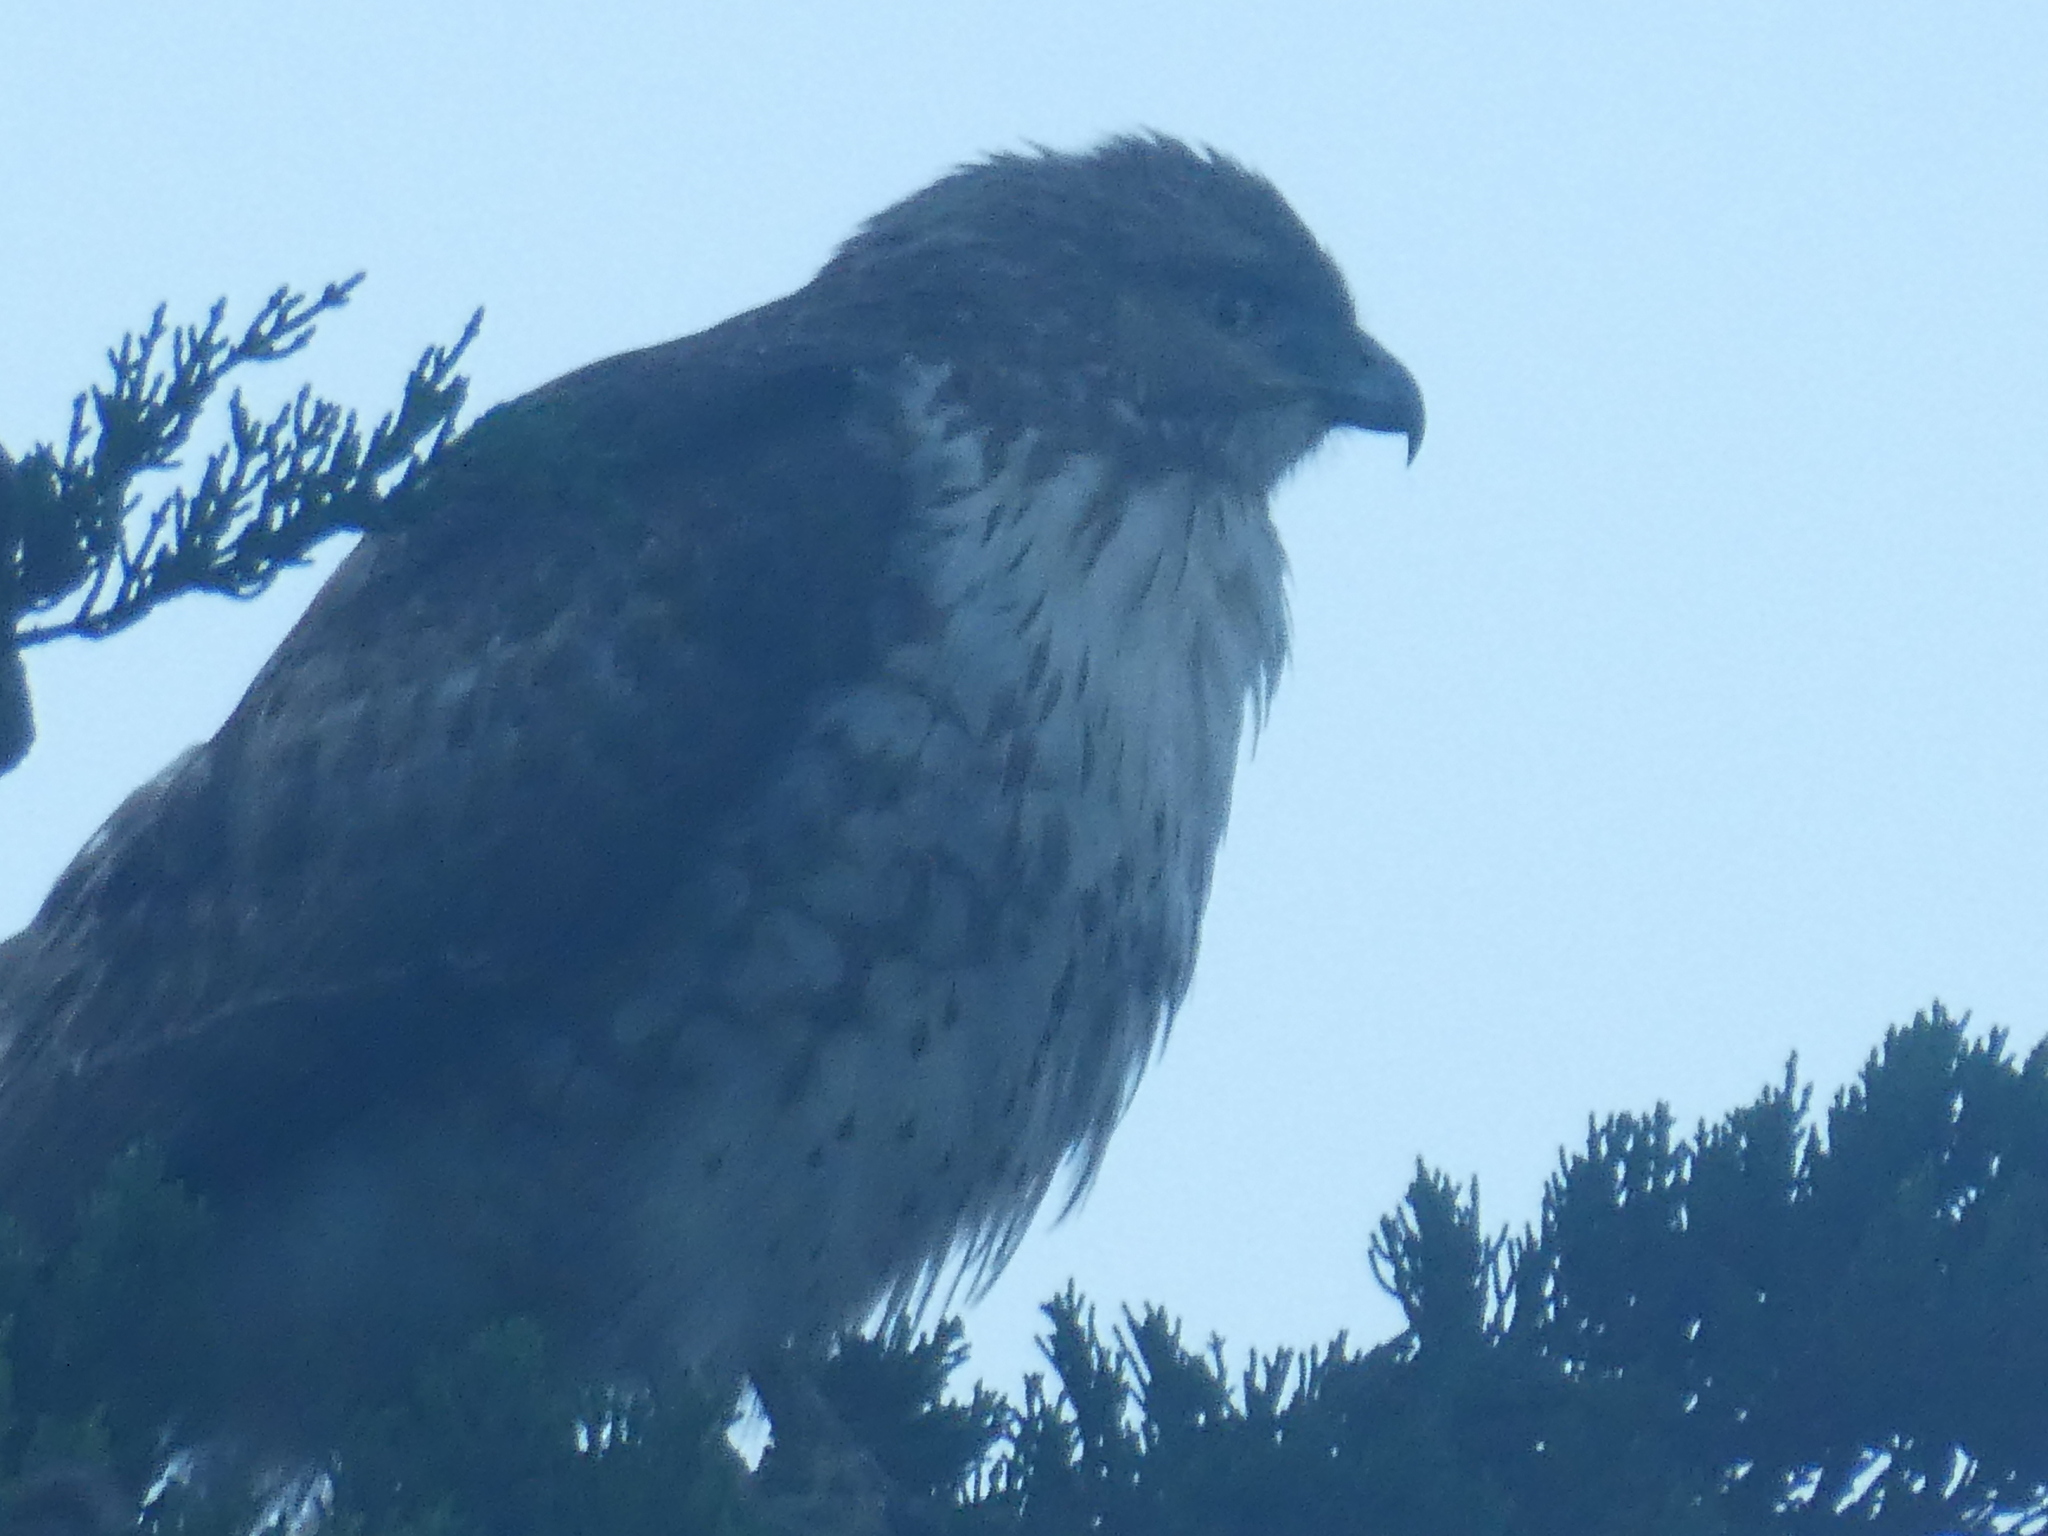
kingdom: Animalia
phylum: Chordata
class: Aves
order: Accipitriformes
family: Accipitridae
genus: Buteo
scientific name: Buteo jamaicensis
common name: Red-tailed hawk
